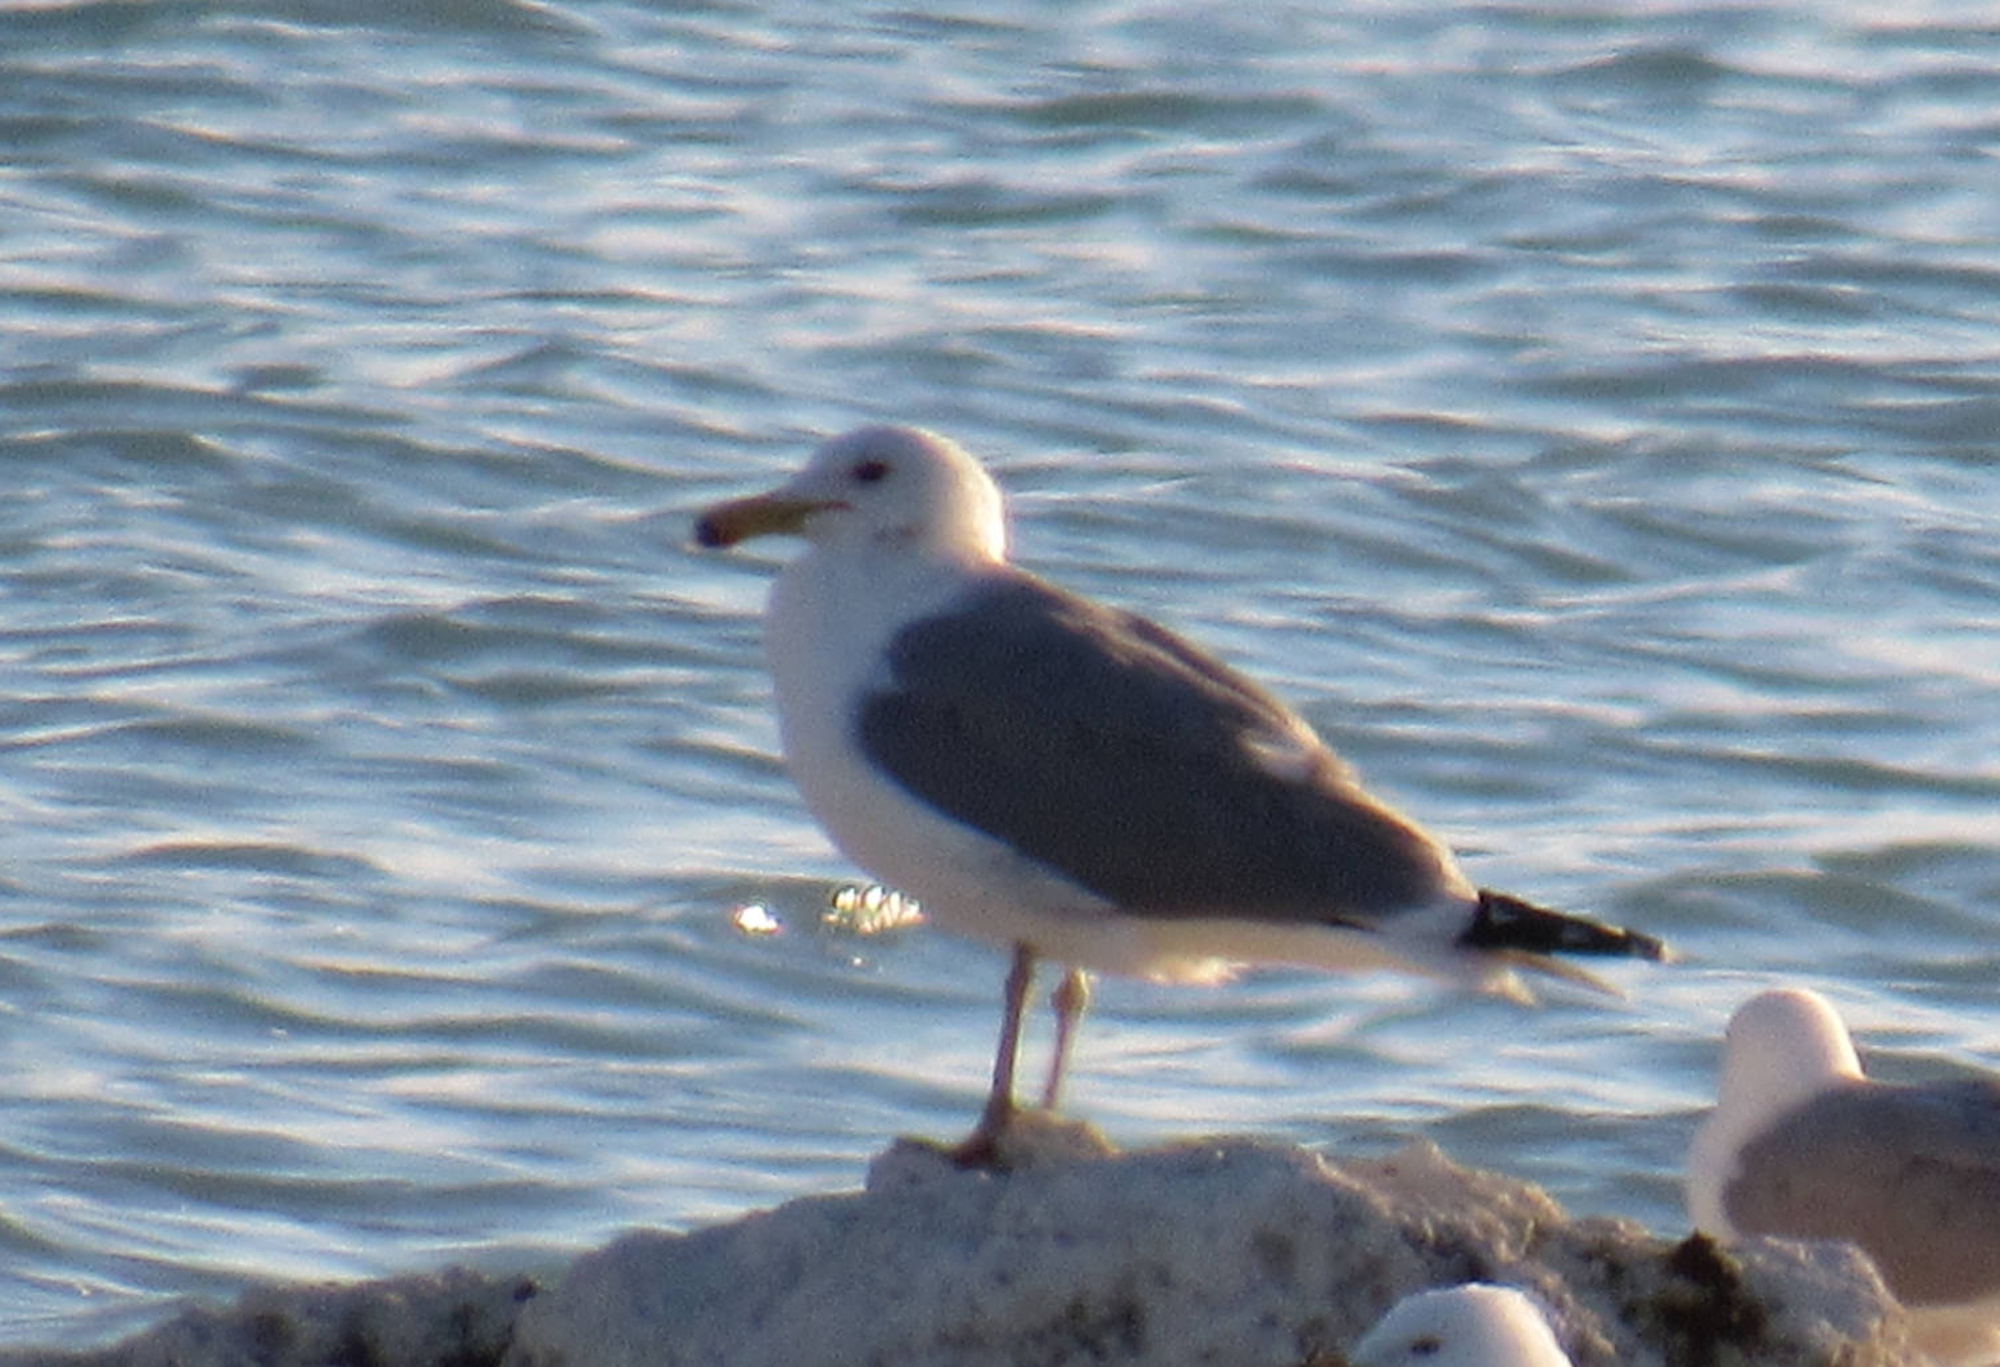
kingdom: Animalia
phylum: Chordata
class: Aves
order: Charadriiformes
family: Laridae
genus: Larus
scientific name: Larus californicus
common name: California gull
